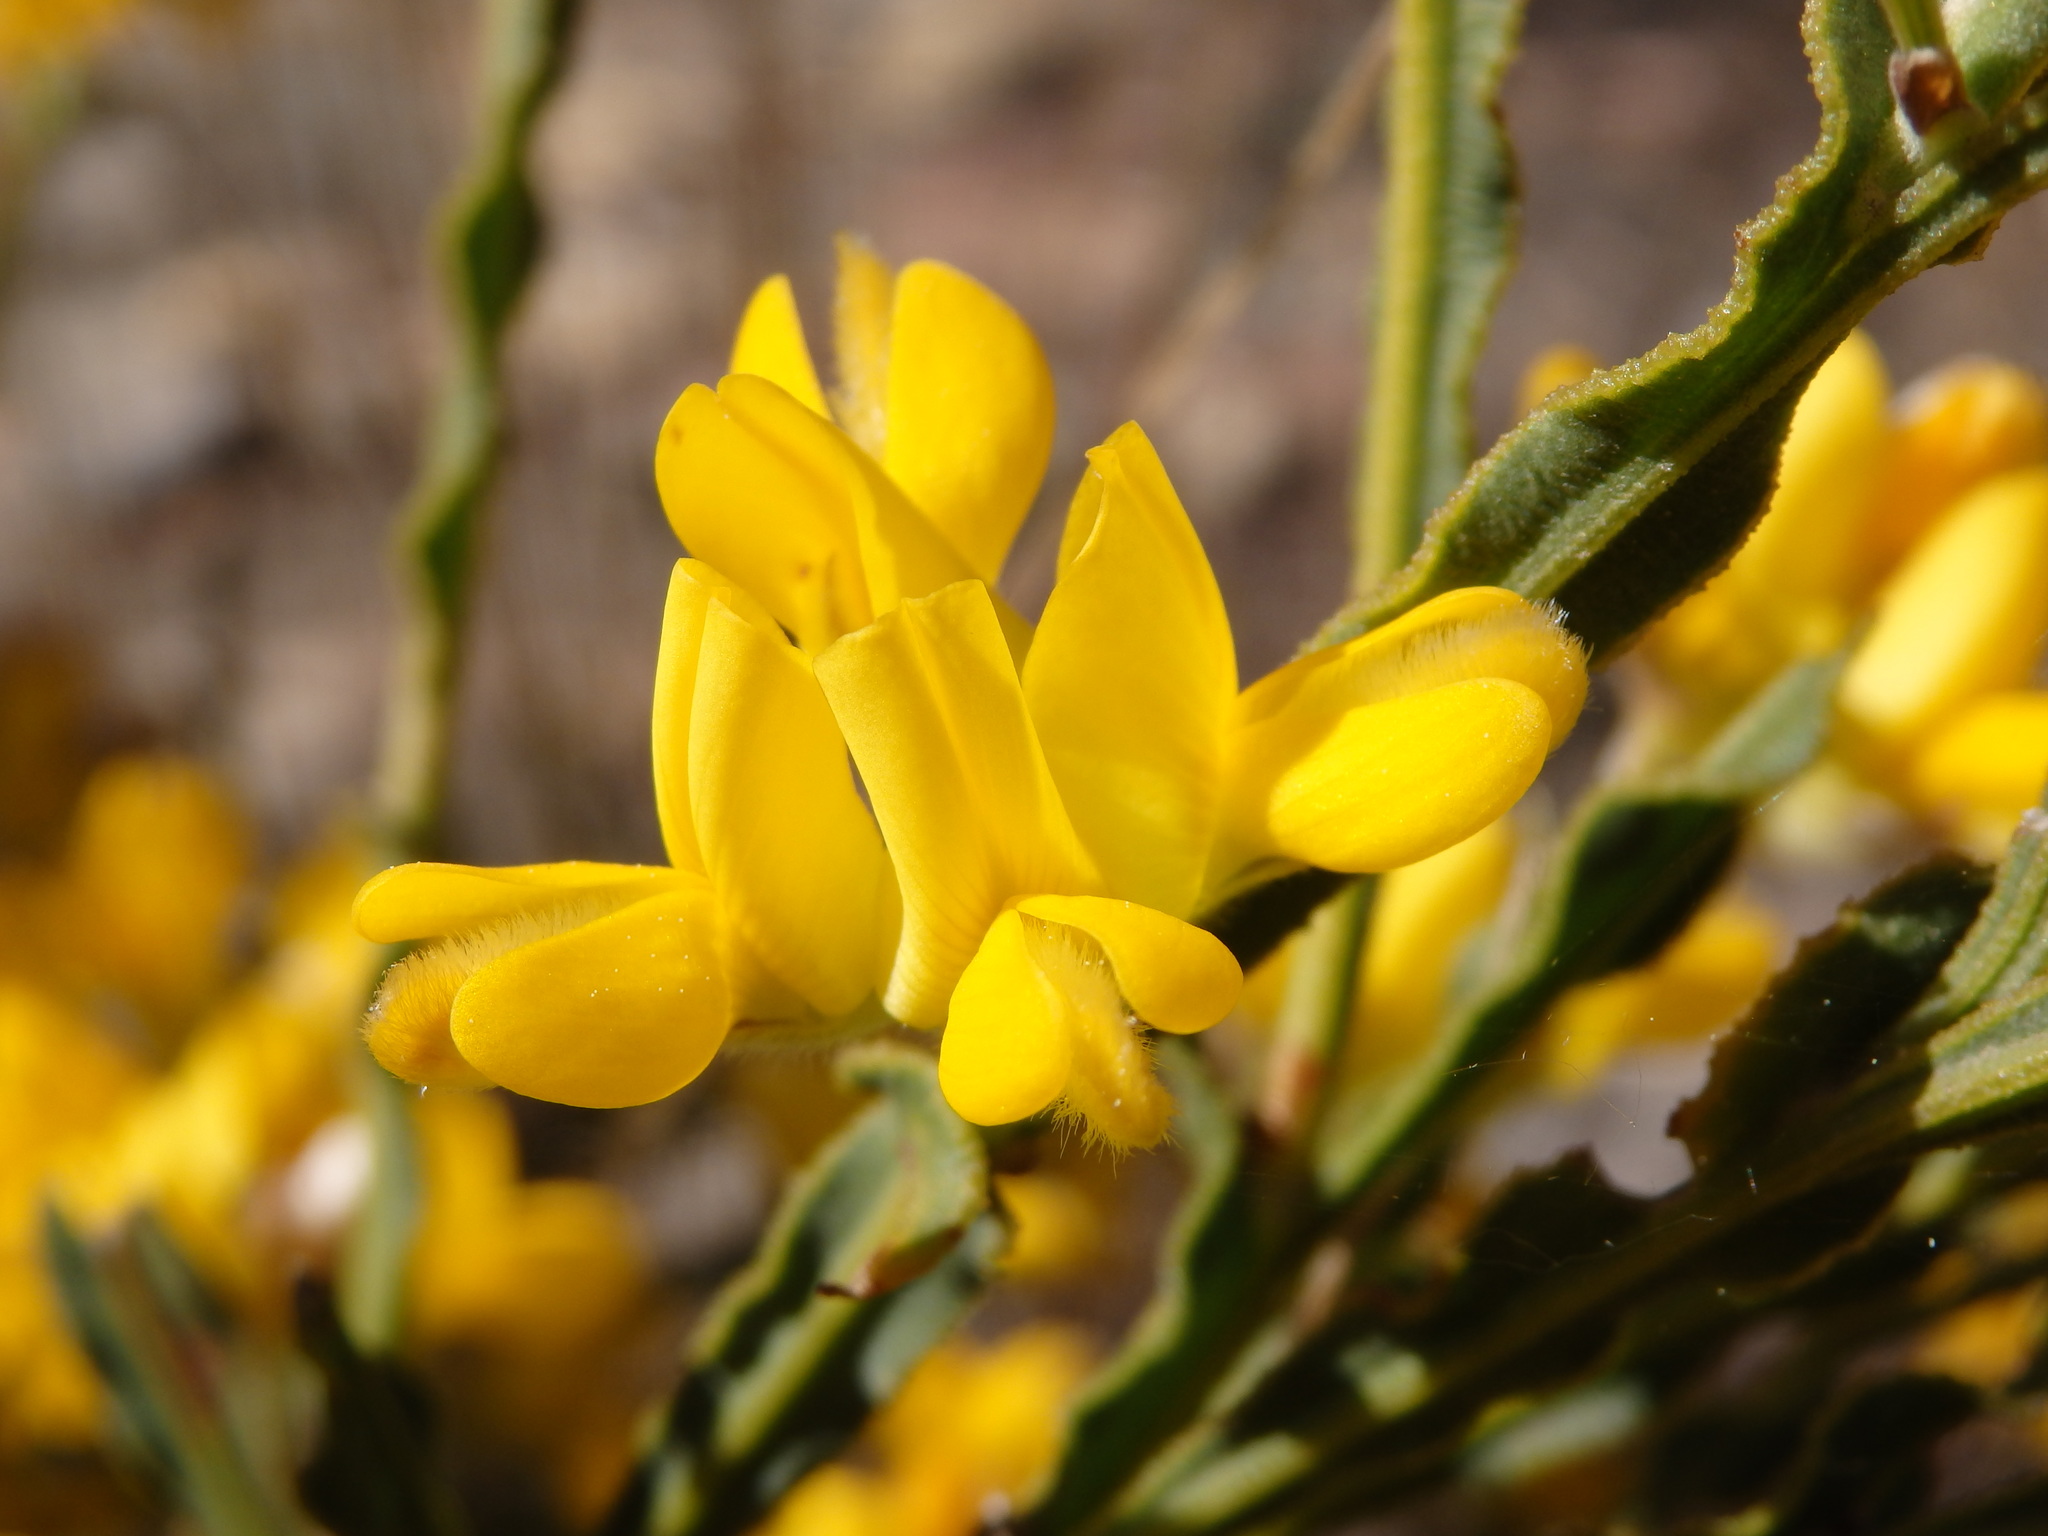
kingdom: Plantae
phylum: Tracheophyta
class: Magnoliopsida
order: Fabales
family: Fabaceae
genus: Genista
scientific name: Genista tridentata
